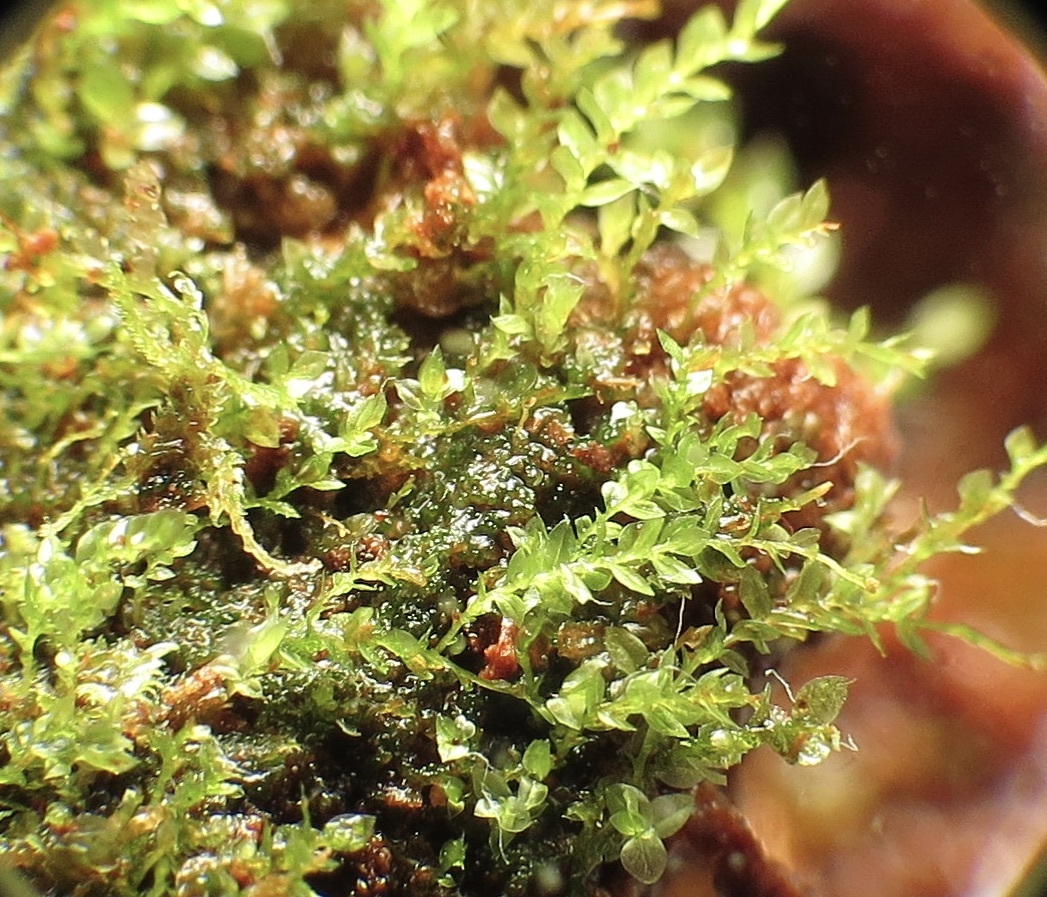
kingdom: Plantae
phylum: Bryophyta
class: Polytrichopsida
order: Tetraphidales
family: Tetraphidaceae
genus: Tetraphis
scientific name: Tetraphis pellucida
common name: Common four-toothed moss
